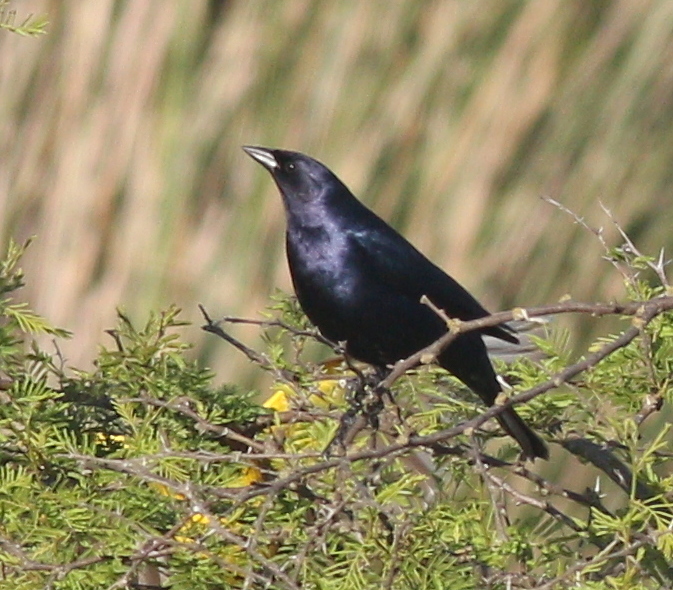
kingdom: Animalia
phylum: Chordata
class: Aves
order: Passeriformes
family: Icteridae
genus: Molothrus
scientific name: Molothrus bonariensis
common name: Shiny cowbird
